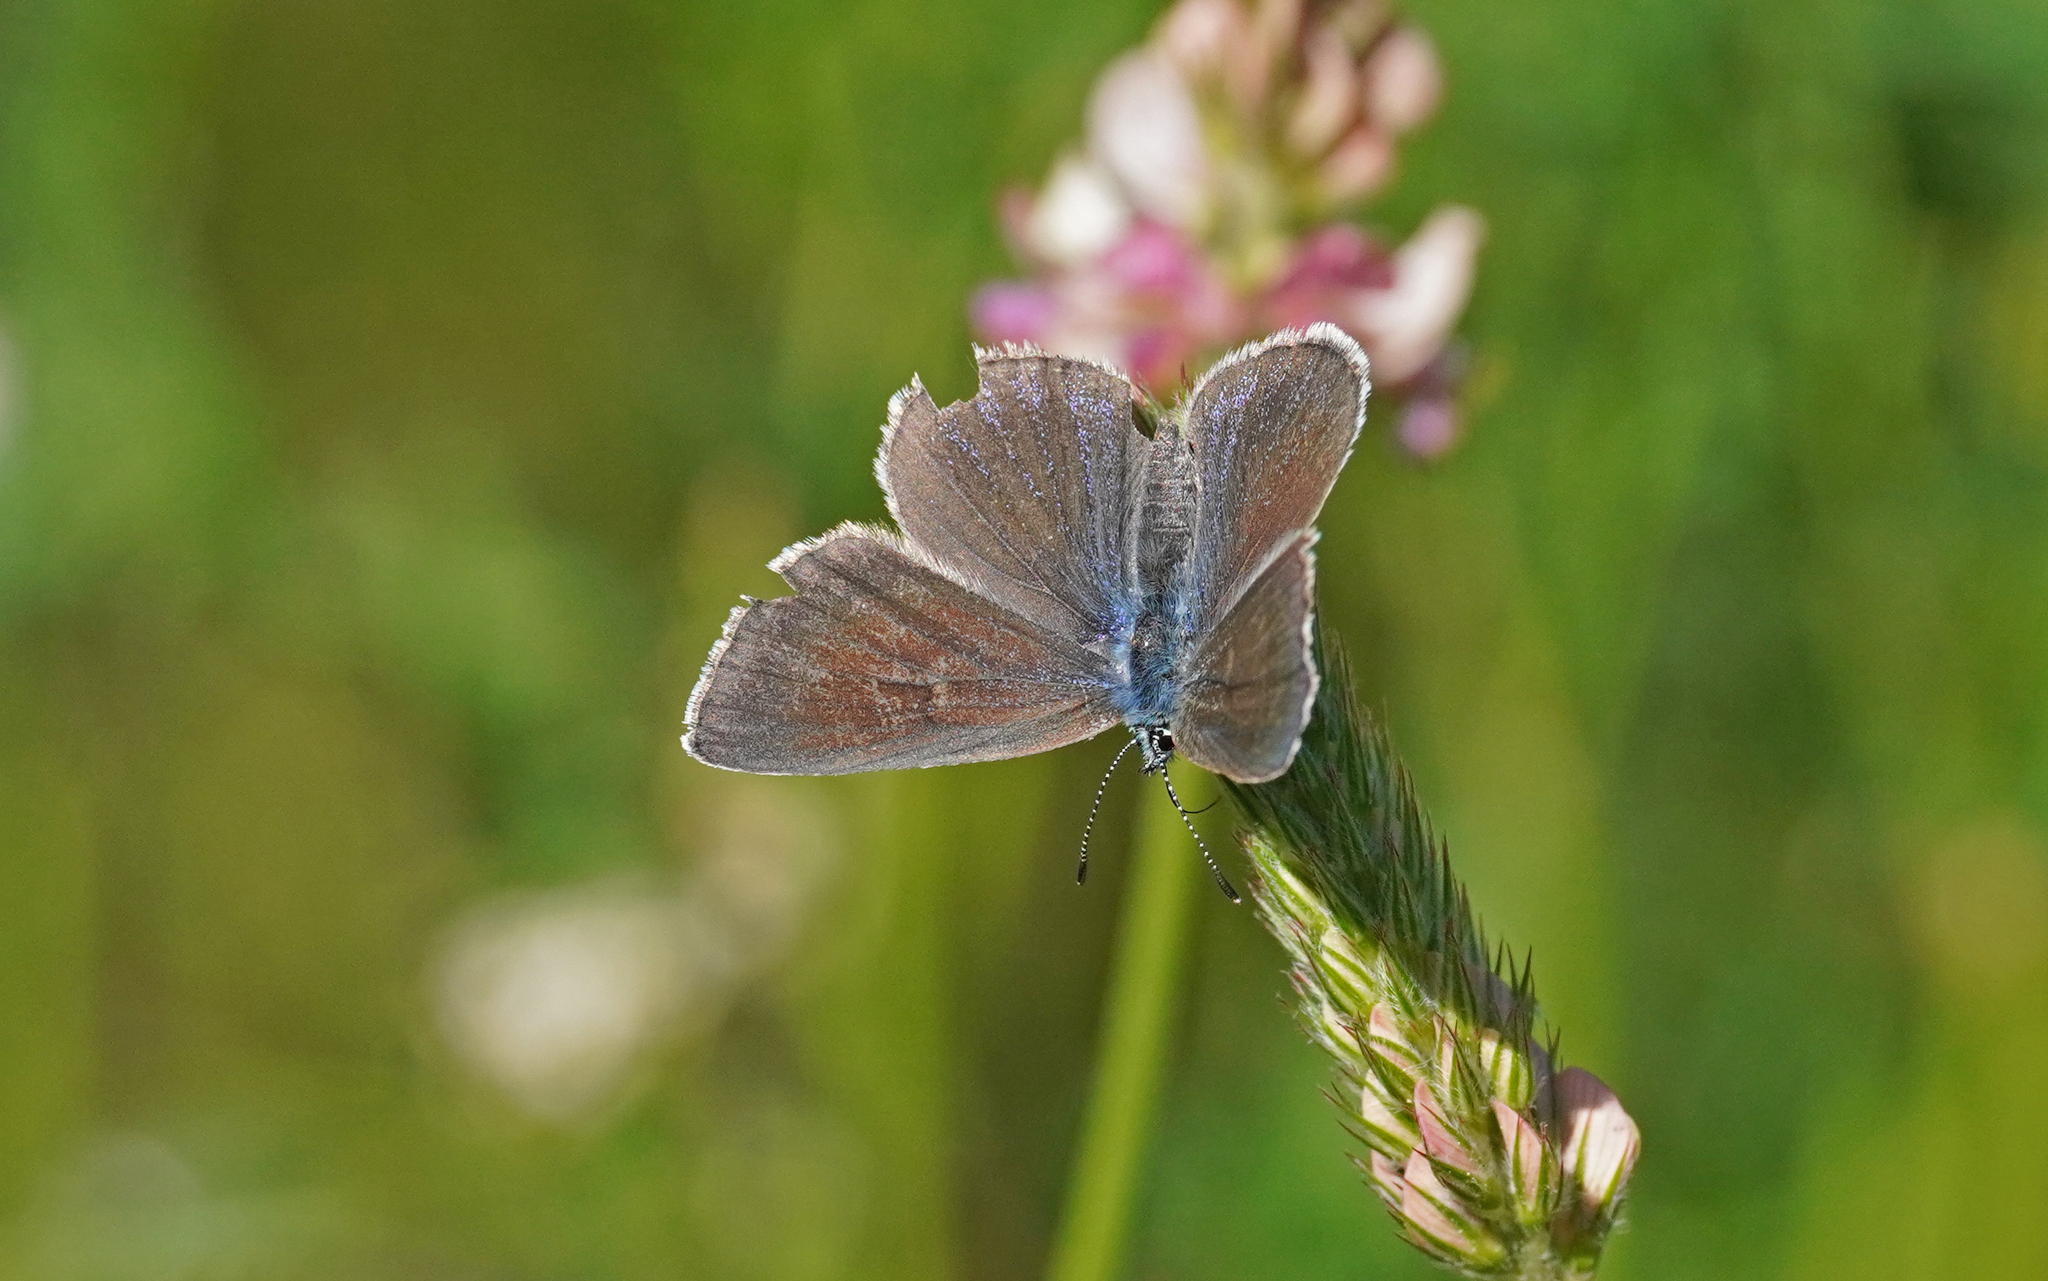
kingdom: Animalia
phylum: Arthropoda
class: Insecta
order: Lepidoptera
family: Lycaenidae
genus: Glaucopsyche
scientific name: Glaucopsyche alexis
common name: Green-underside blue
